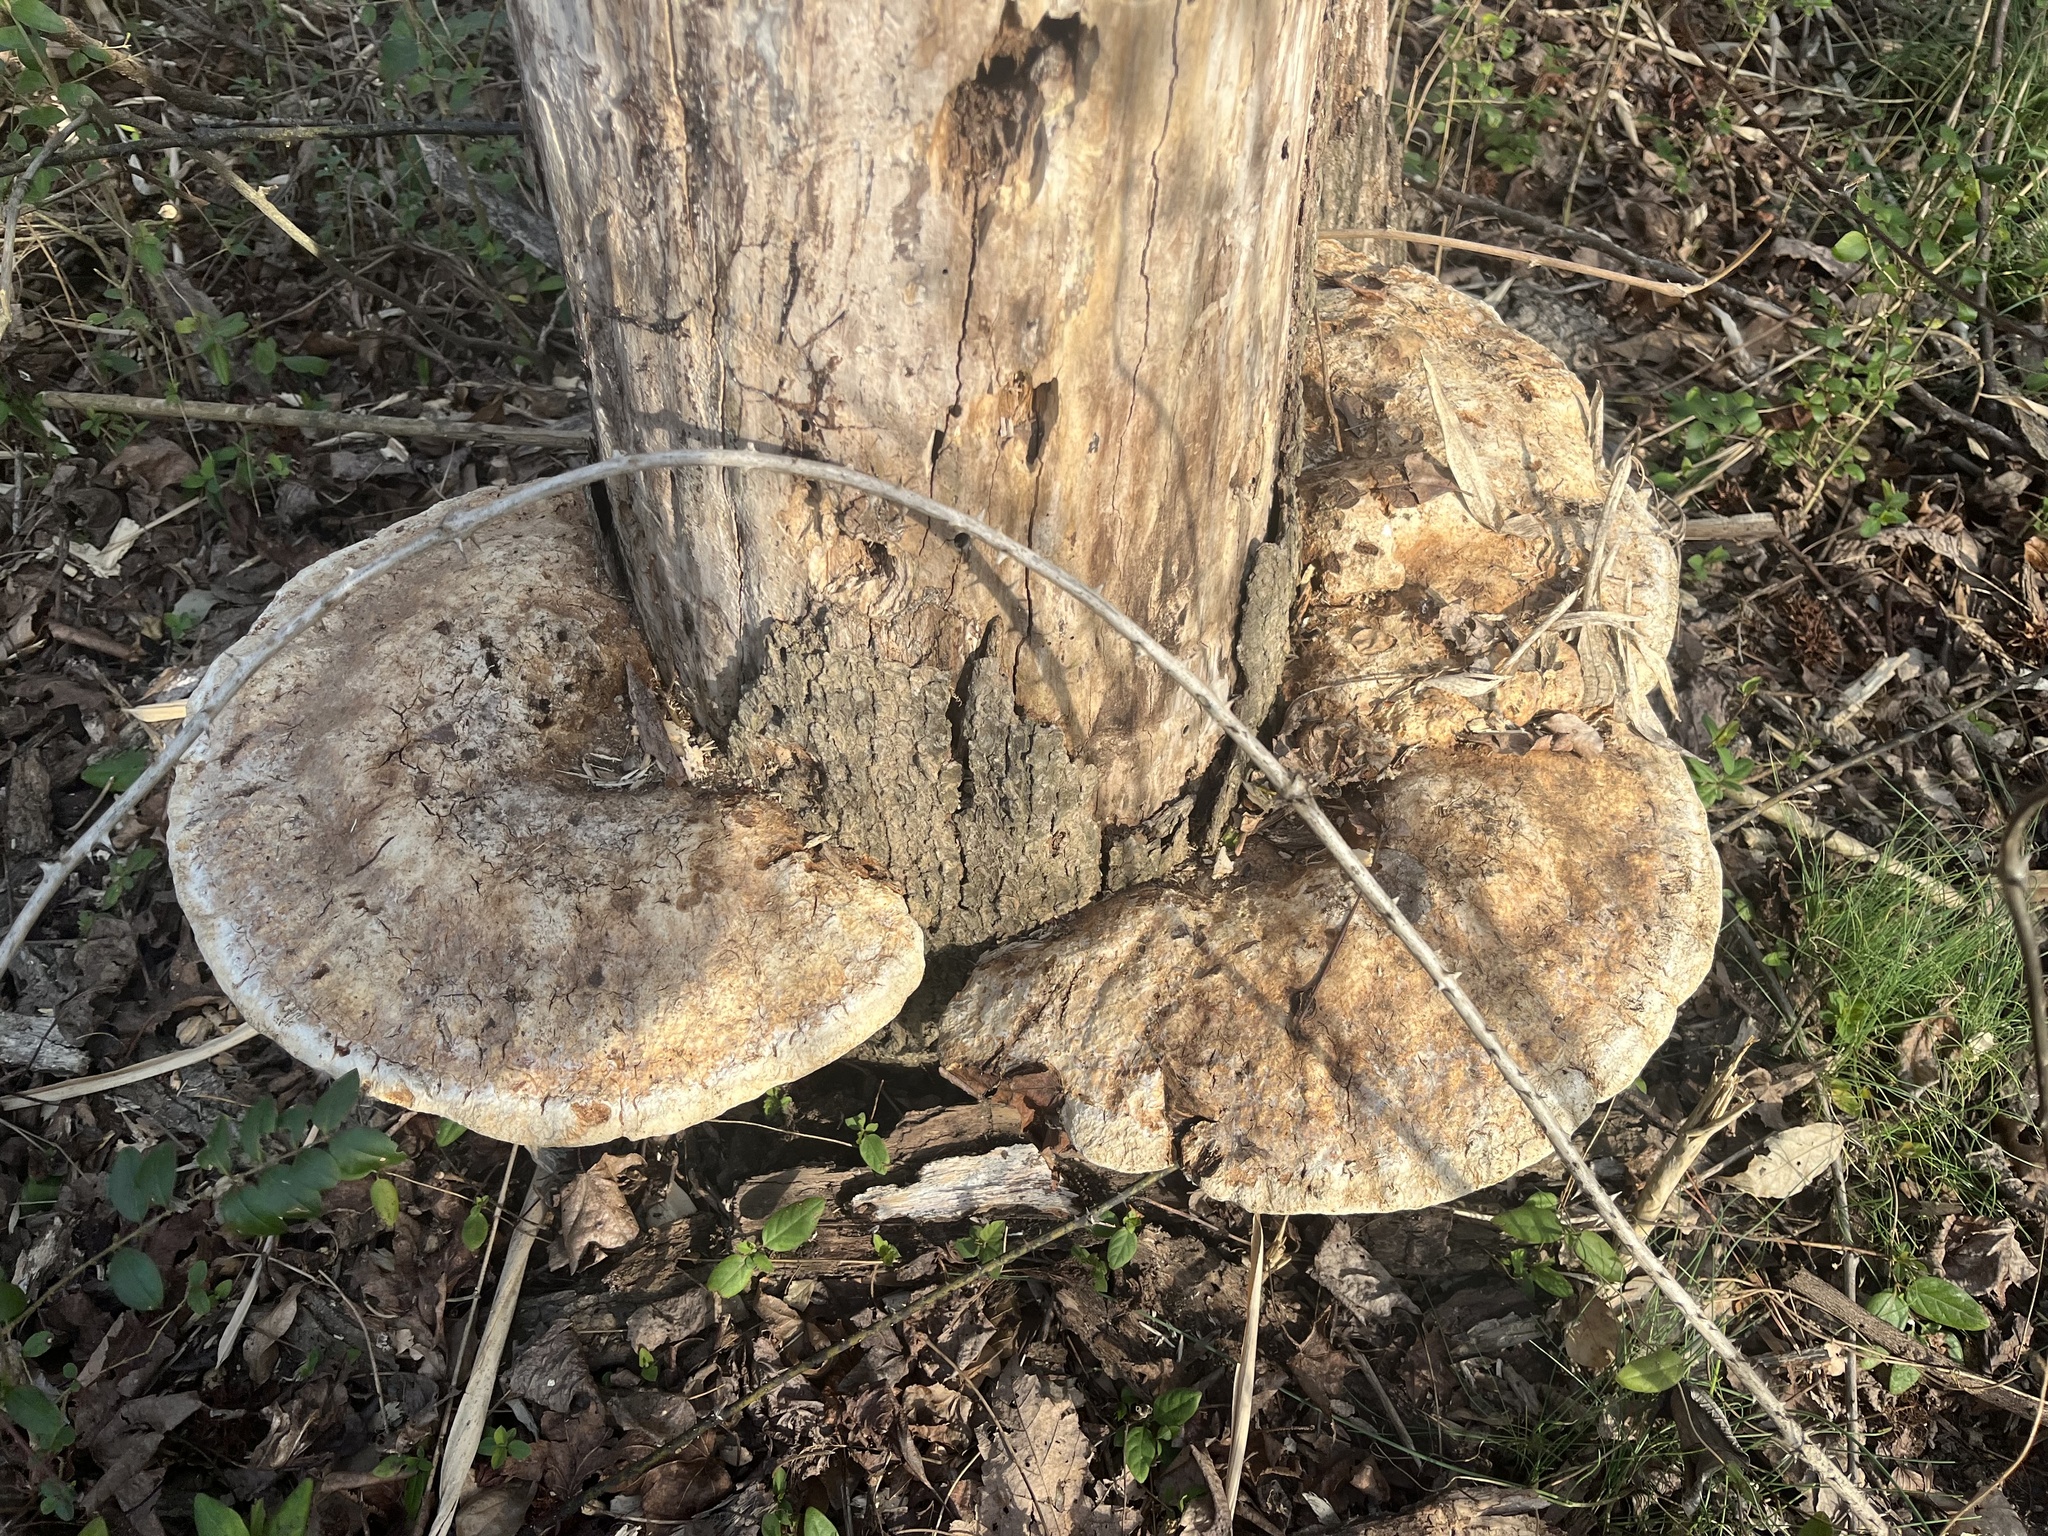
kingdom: Fungi
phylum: Basidiomycota
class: Agaricomycetes
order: Hymenochaetales
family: Hymenochaetaceae
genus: Pseudoinonotus
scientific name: Pseudoinonotus dryadeus
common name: Oak bracket
